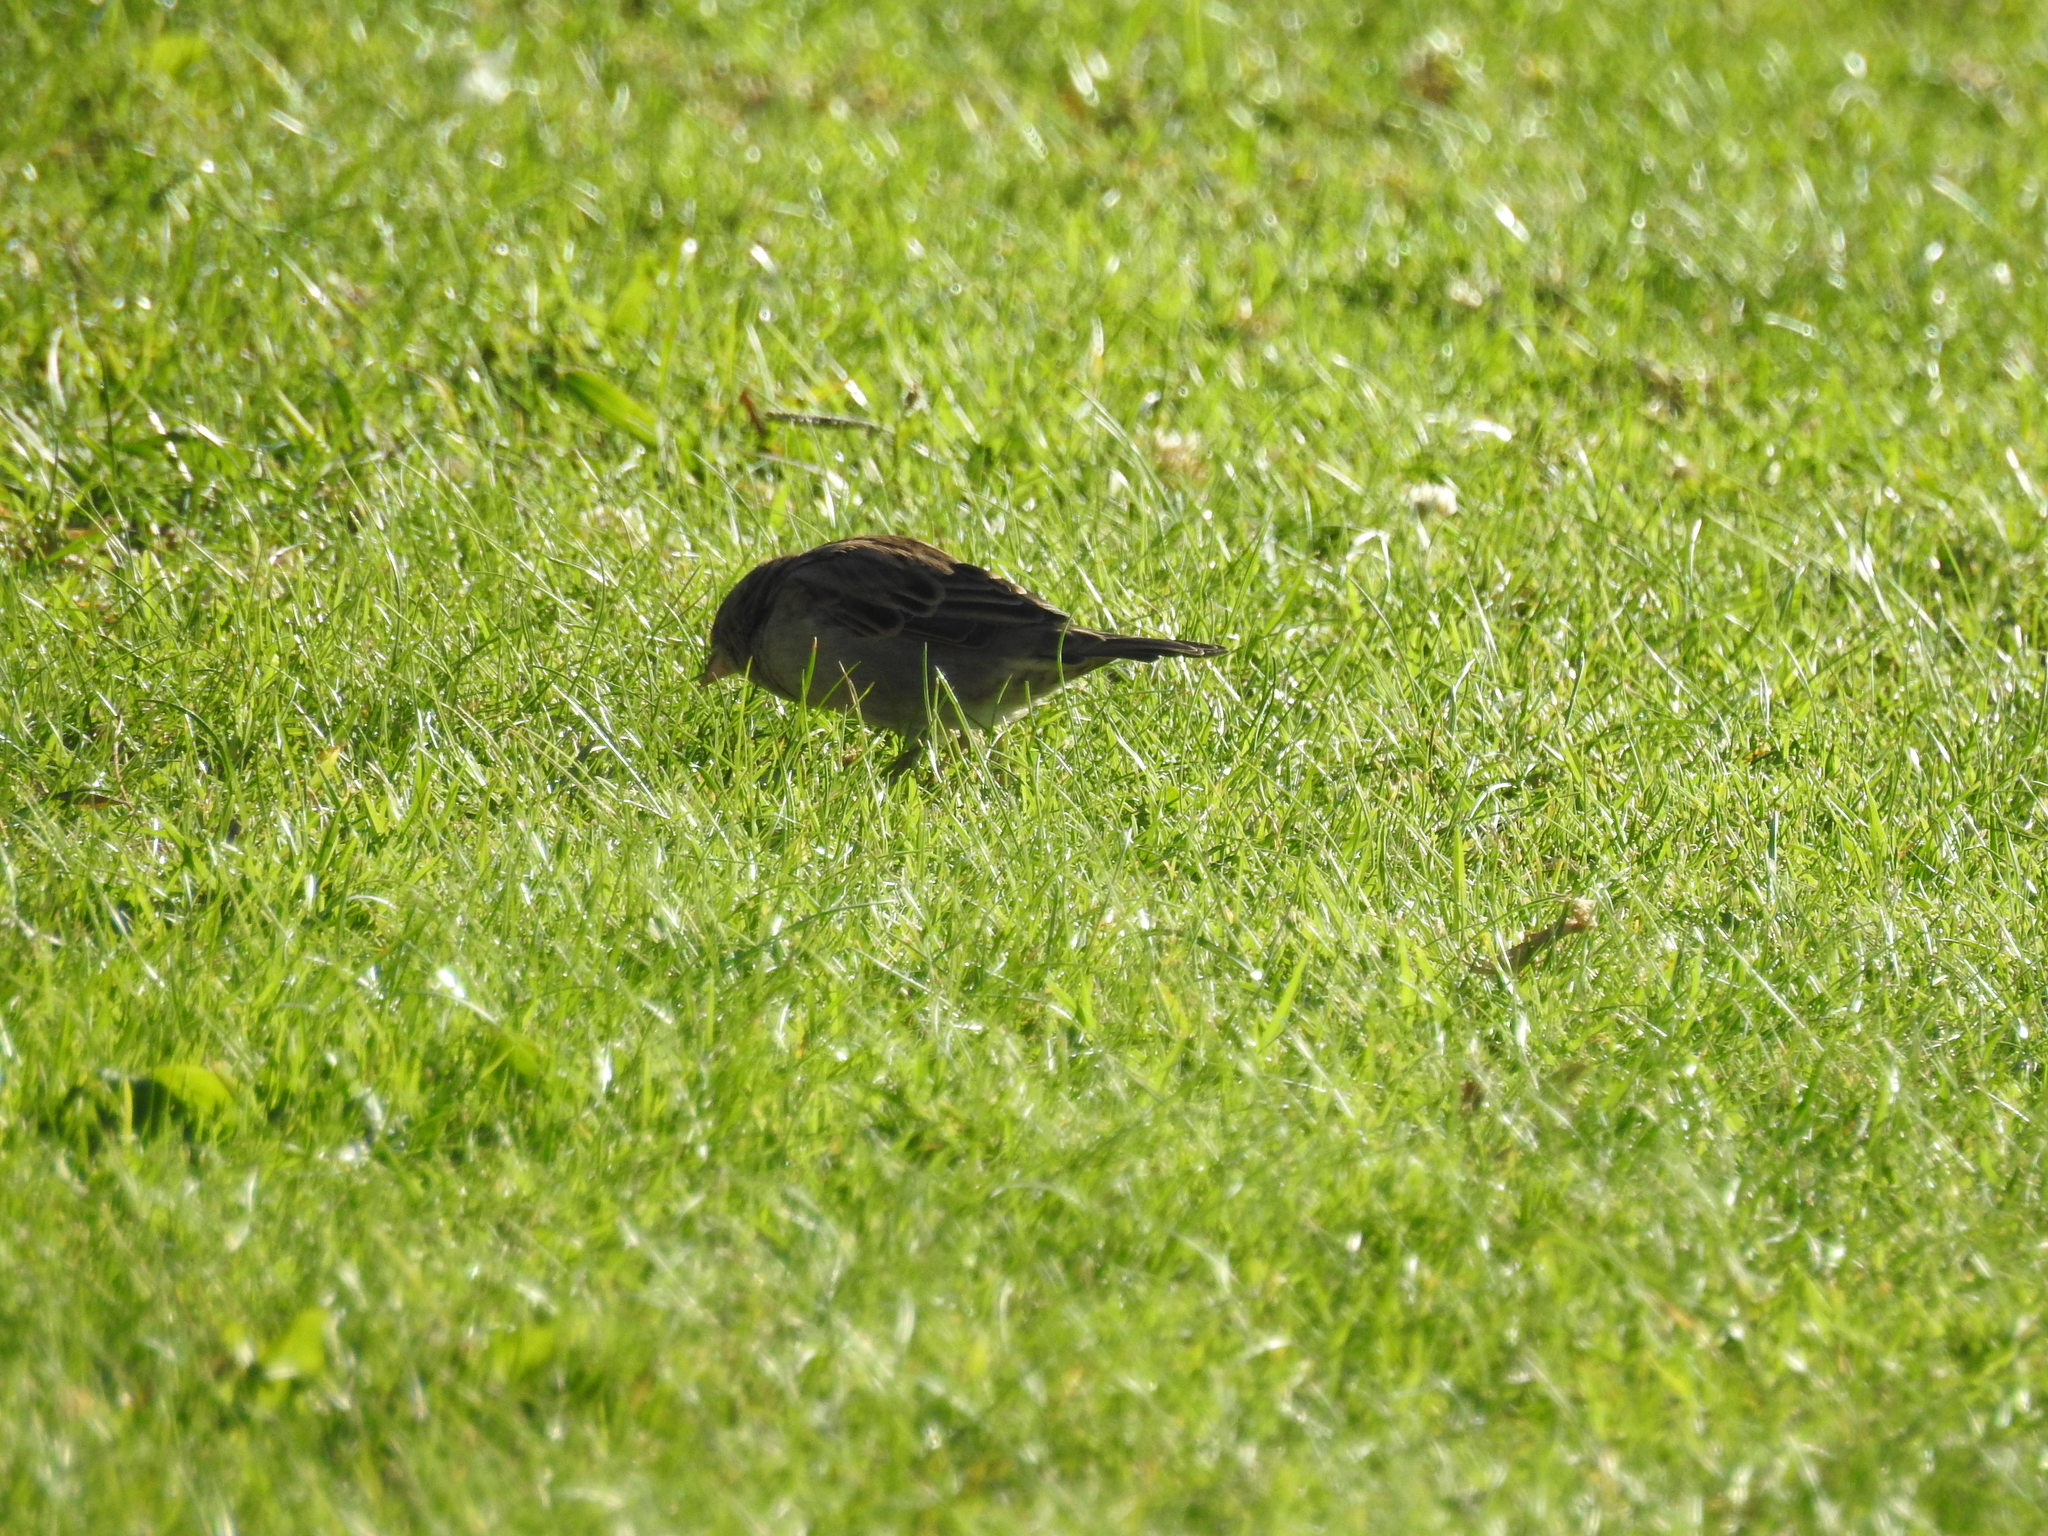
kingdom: Animalia
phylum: Chordata
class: Aves
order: Passeriformes
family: Passeridae
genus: Passer
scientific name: Passer domesticus
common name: House sparrow
